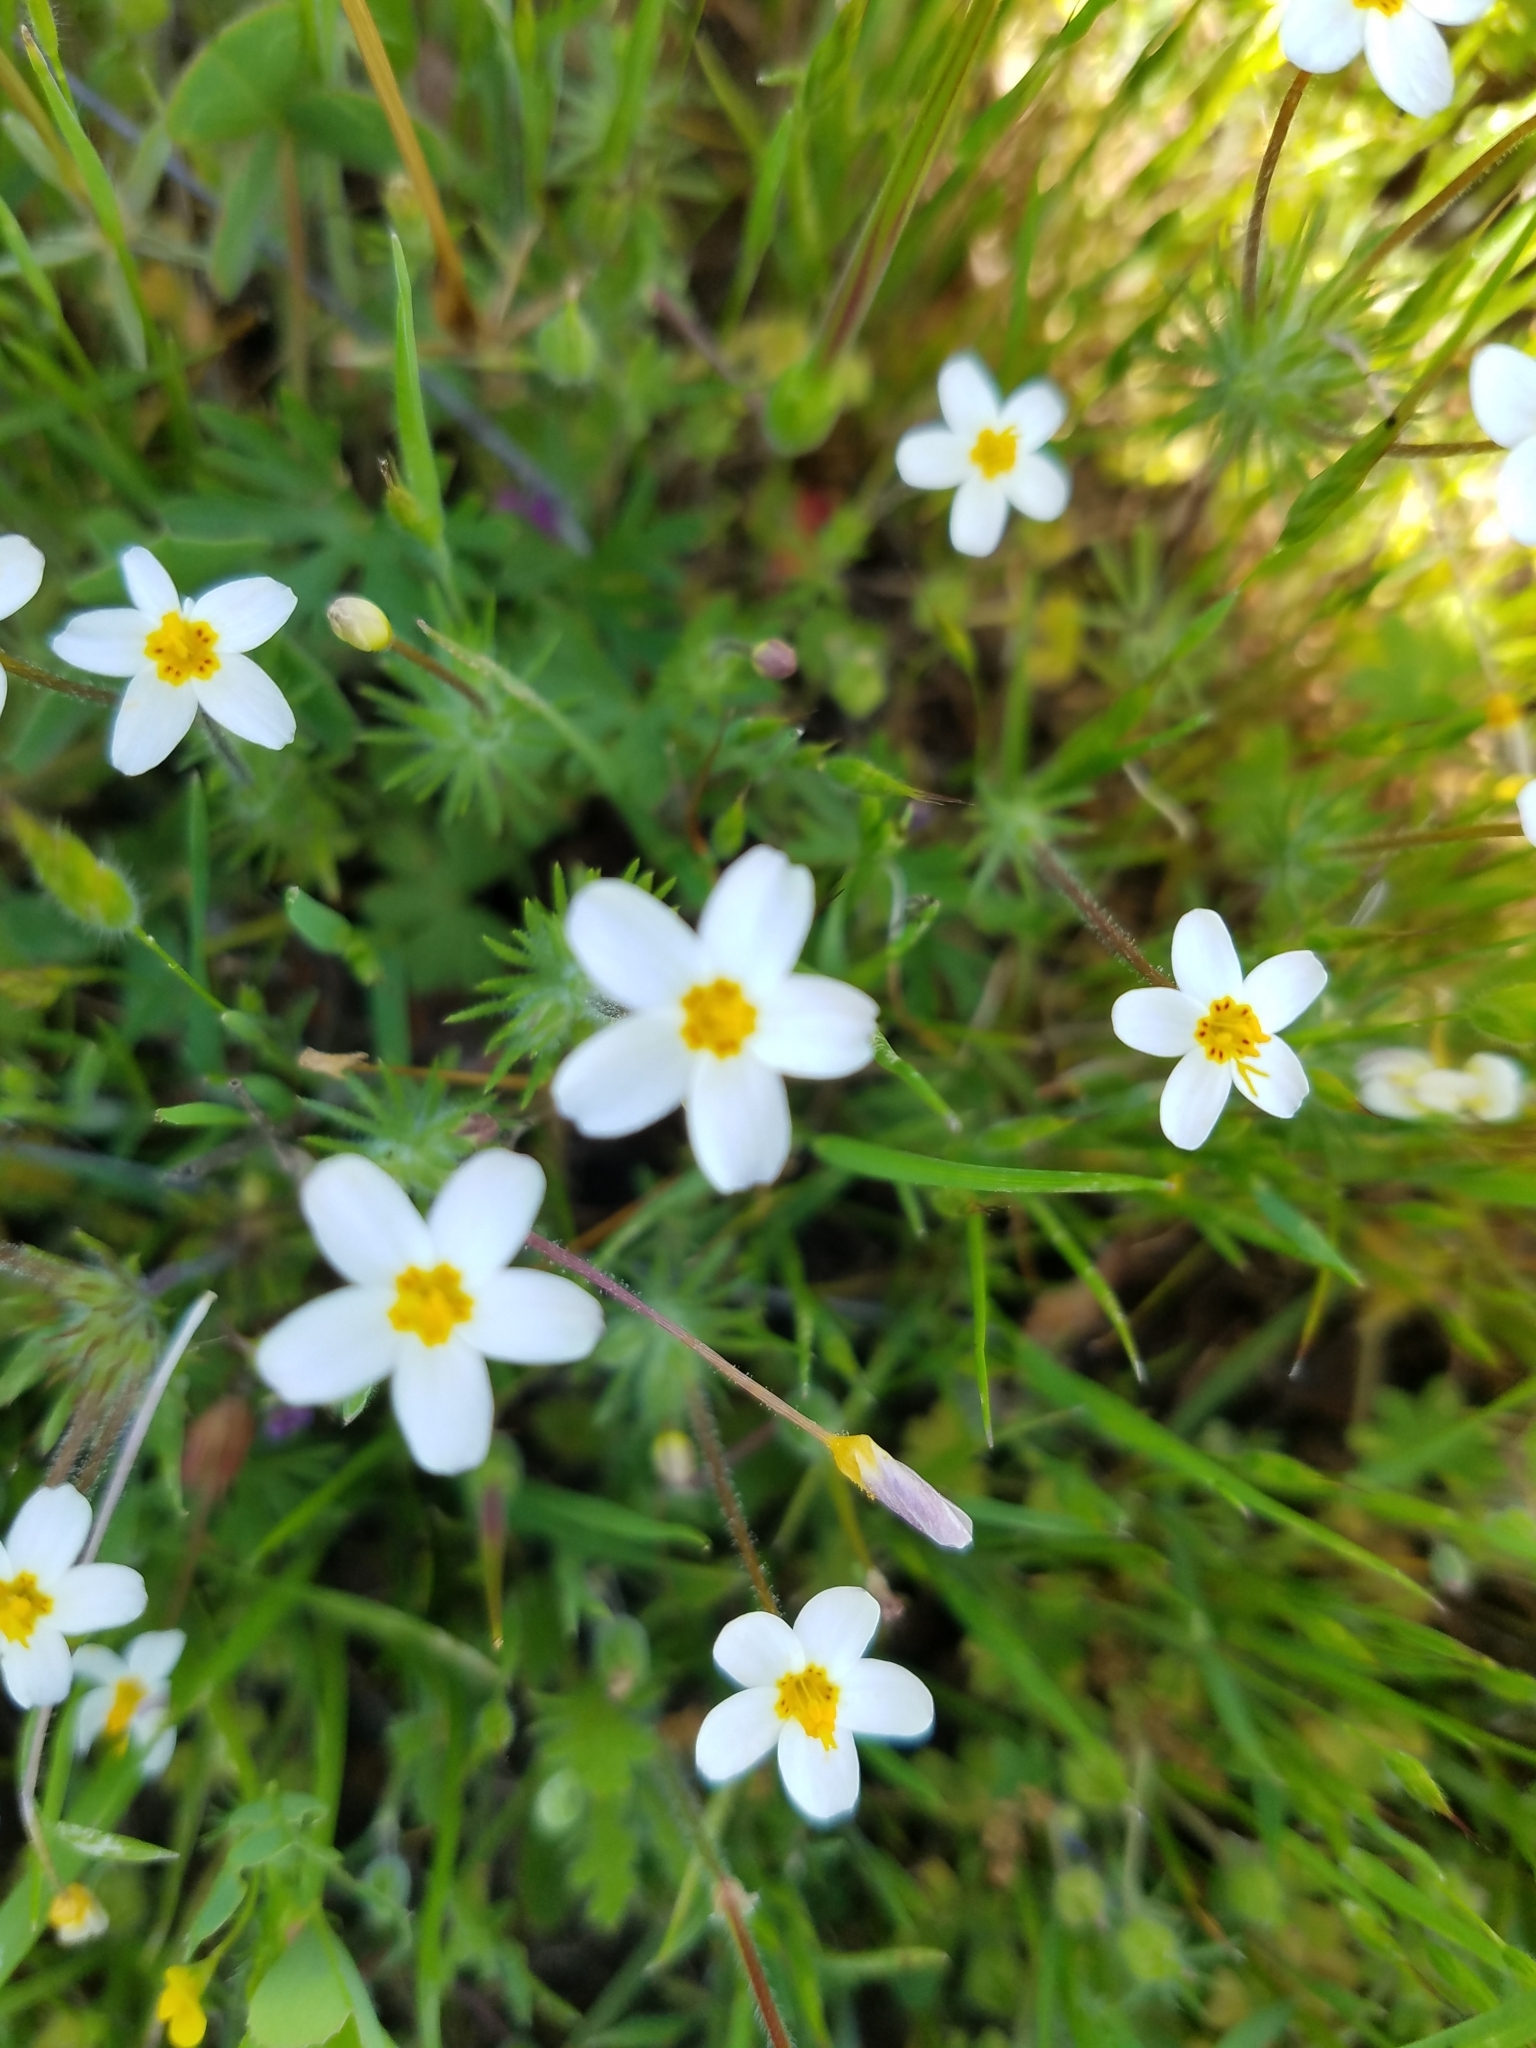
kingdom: Plantae
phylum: Tracheophyta
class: Magnoliopsida
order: Ericales
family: Polemoniaceae
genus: Leptosiphon
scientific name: Leptosiphon parviflorus
